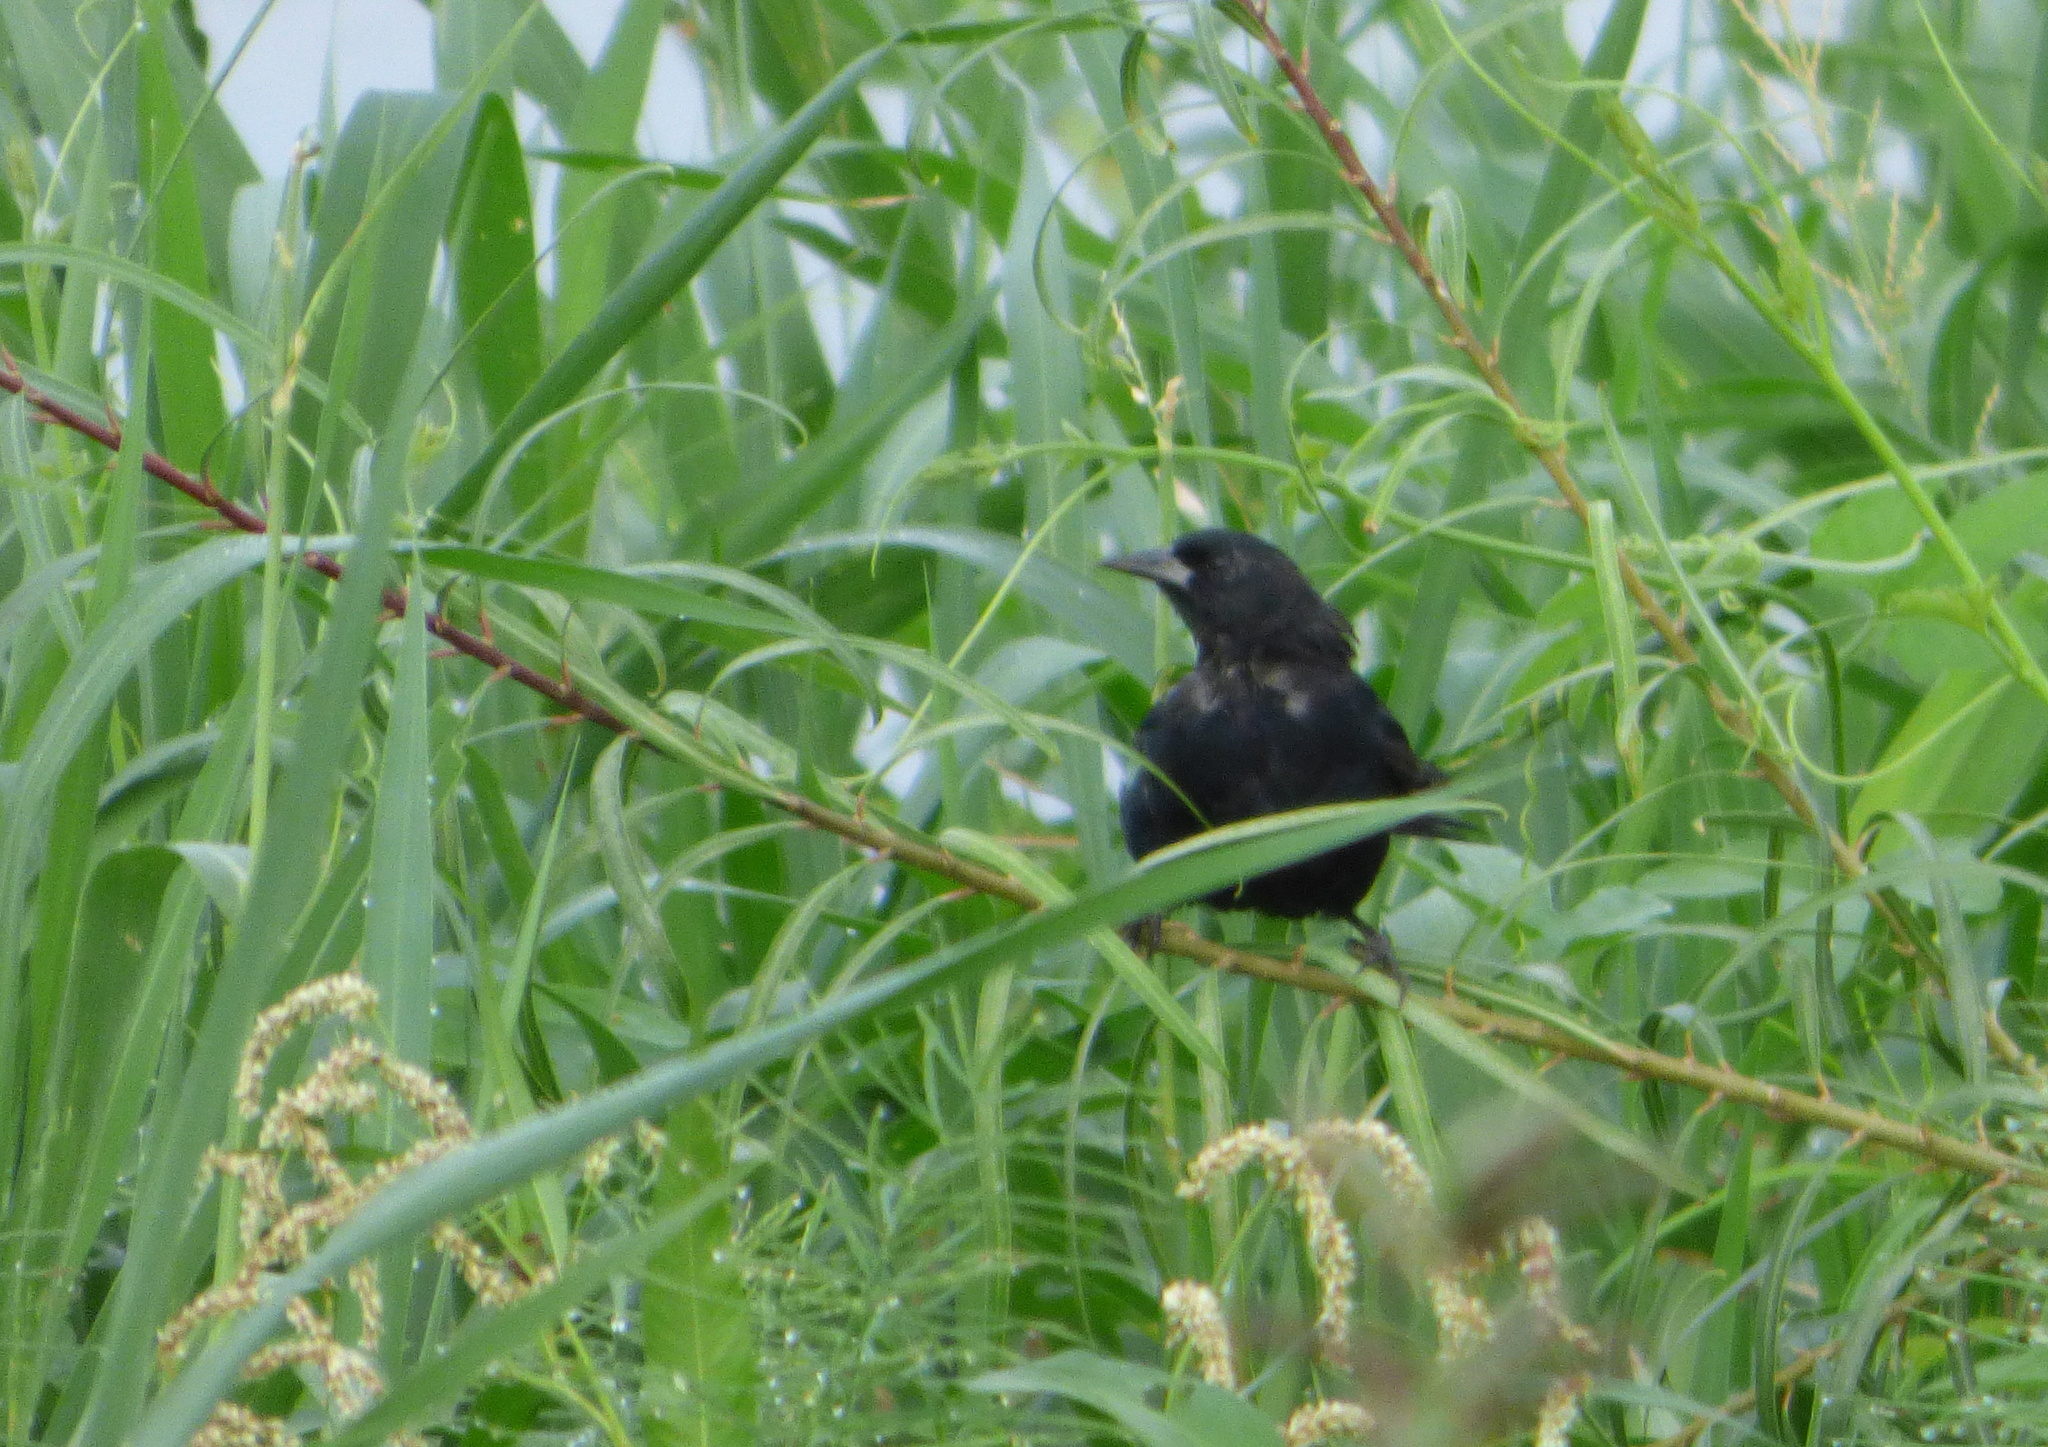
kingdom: Animalia
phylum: Chordata
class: Aves
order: Passeriformes
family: Icteridae
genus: Agelasticus
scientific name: Agelasticus cyanopus
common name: Unicolored blackbird
